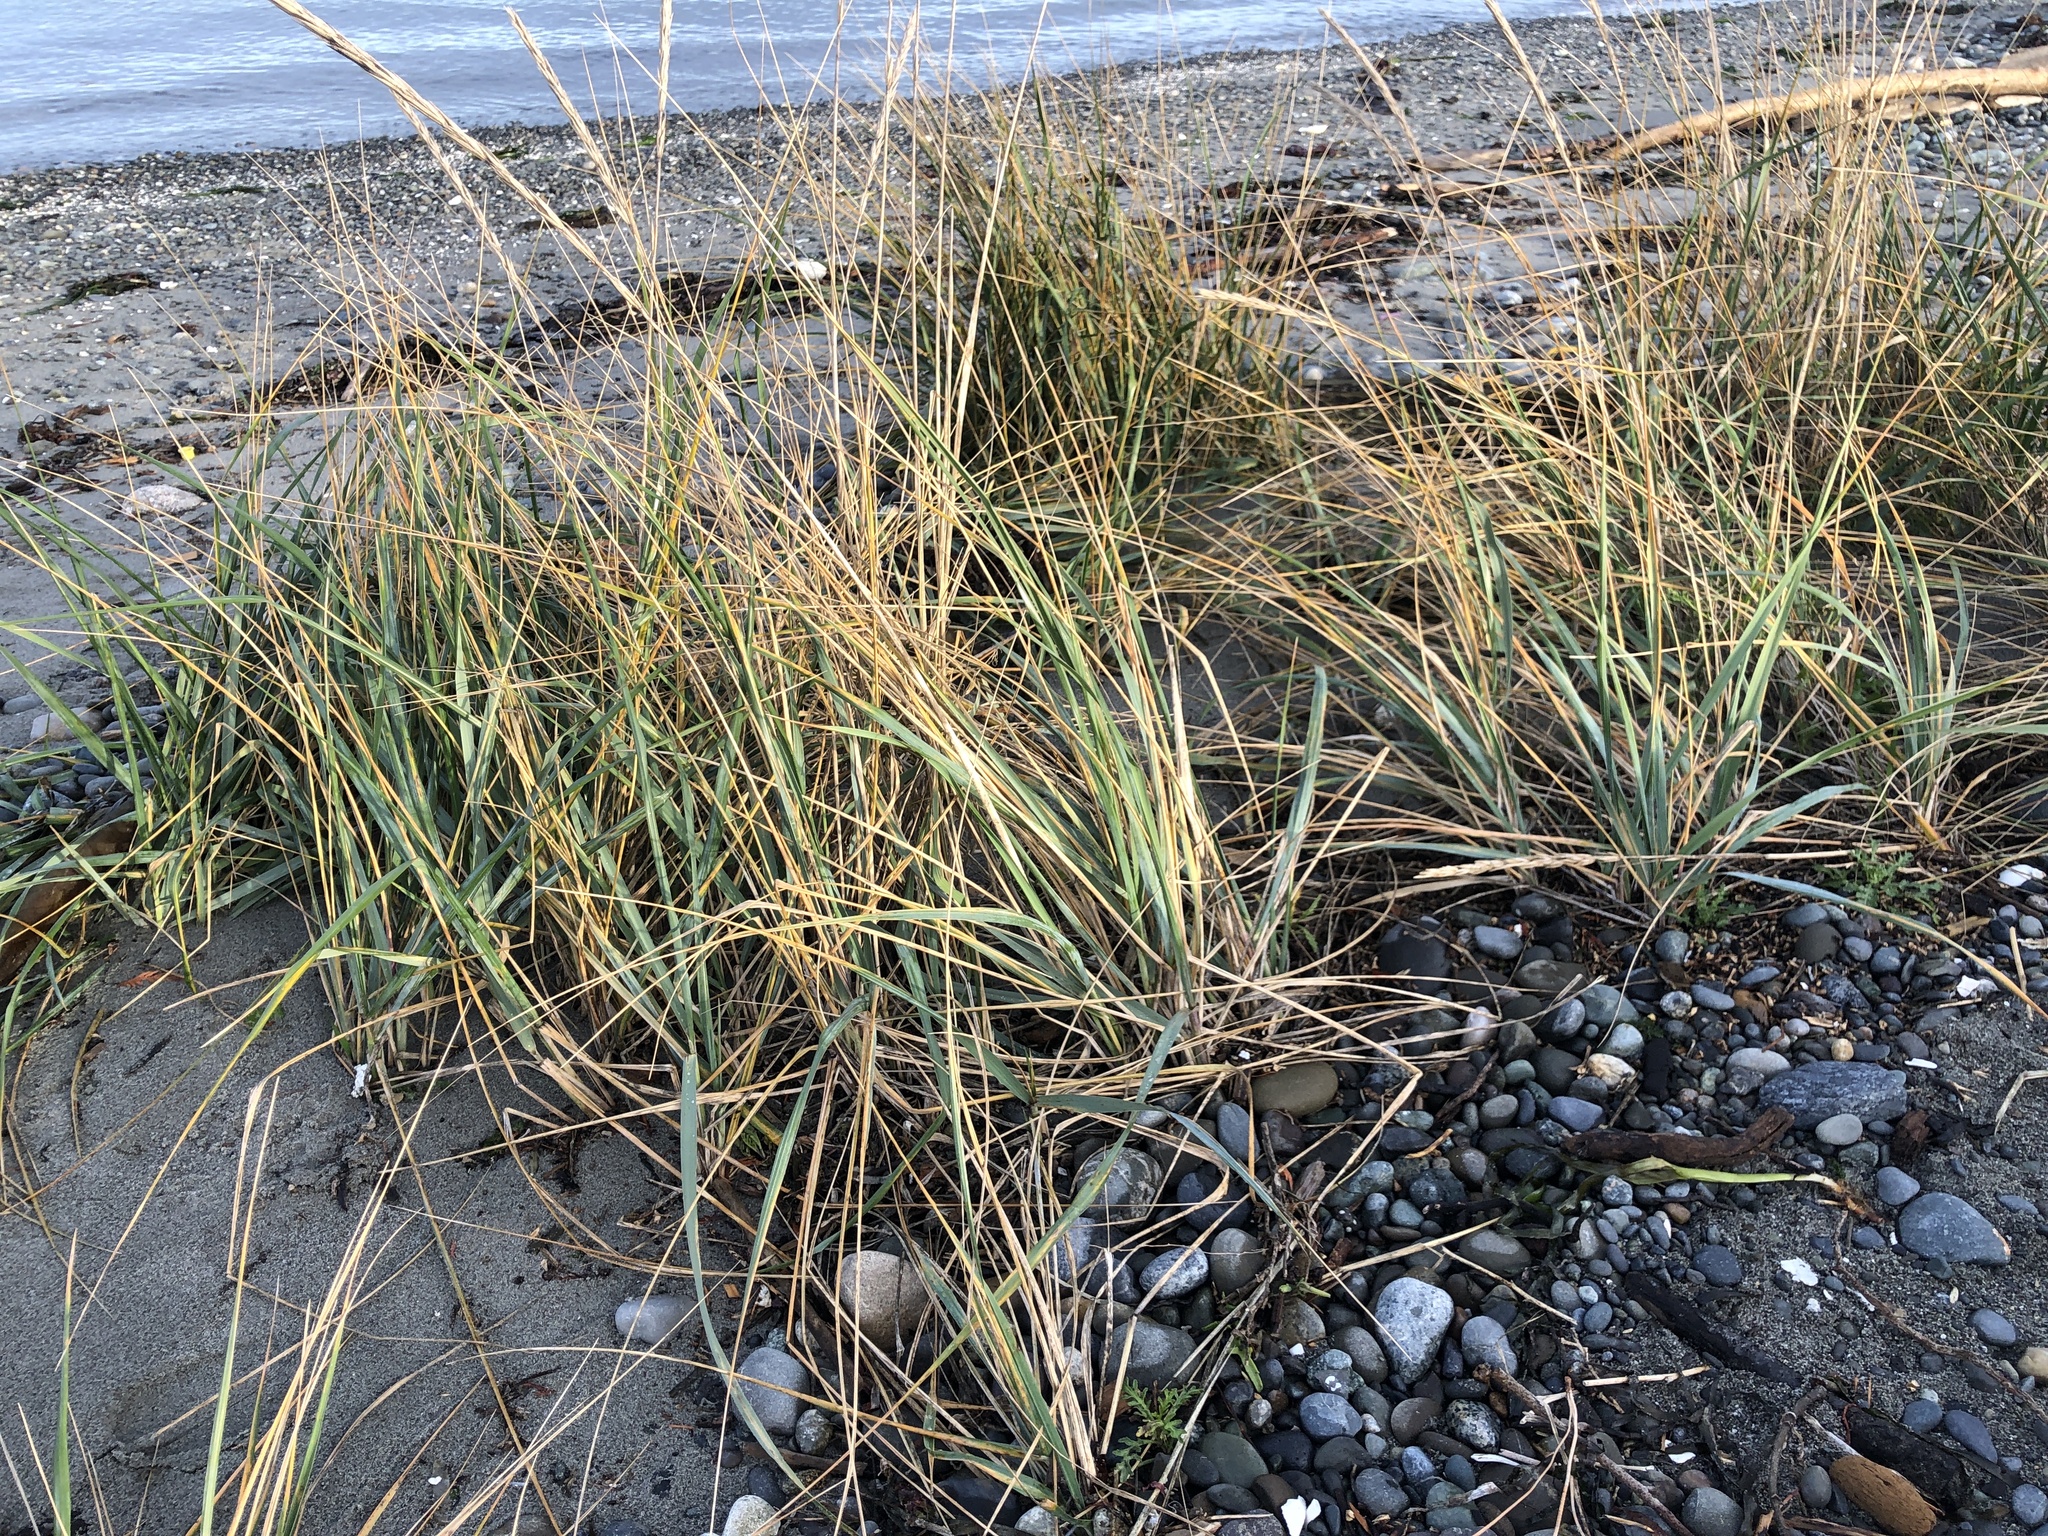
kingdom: Plantae
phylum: Tracheophyta
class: Liliopsida
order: Poales
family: Poaceae
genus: Leymus
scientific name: Leymus mollis
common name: American dune grass
